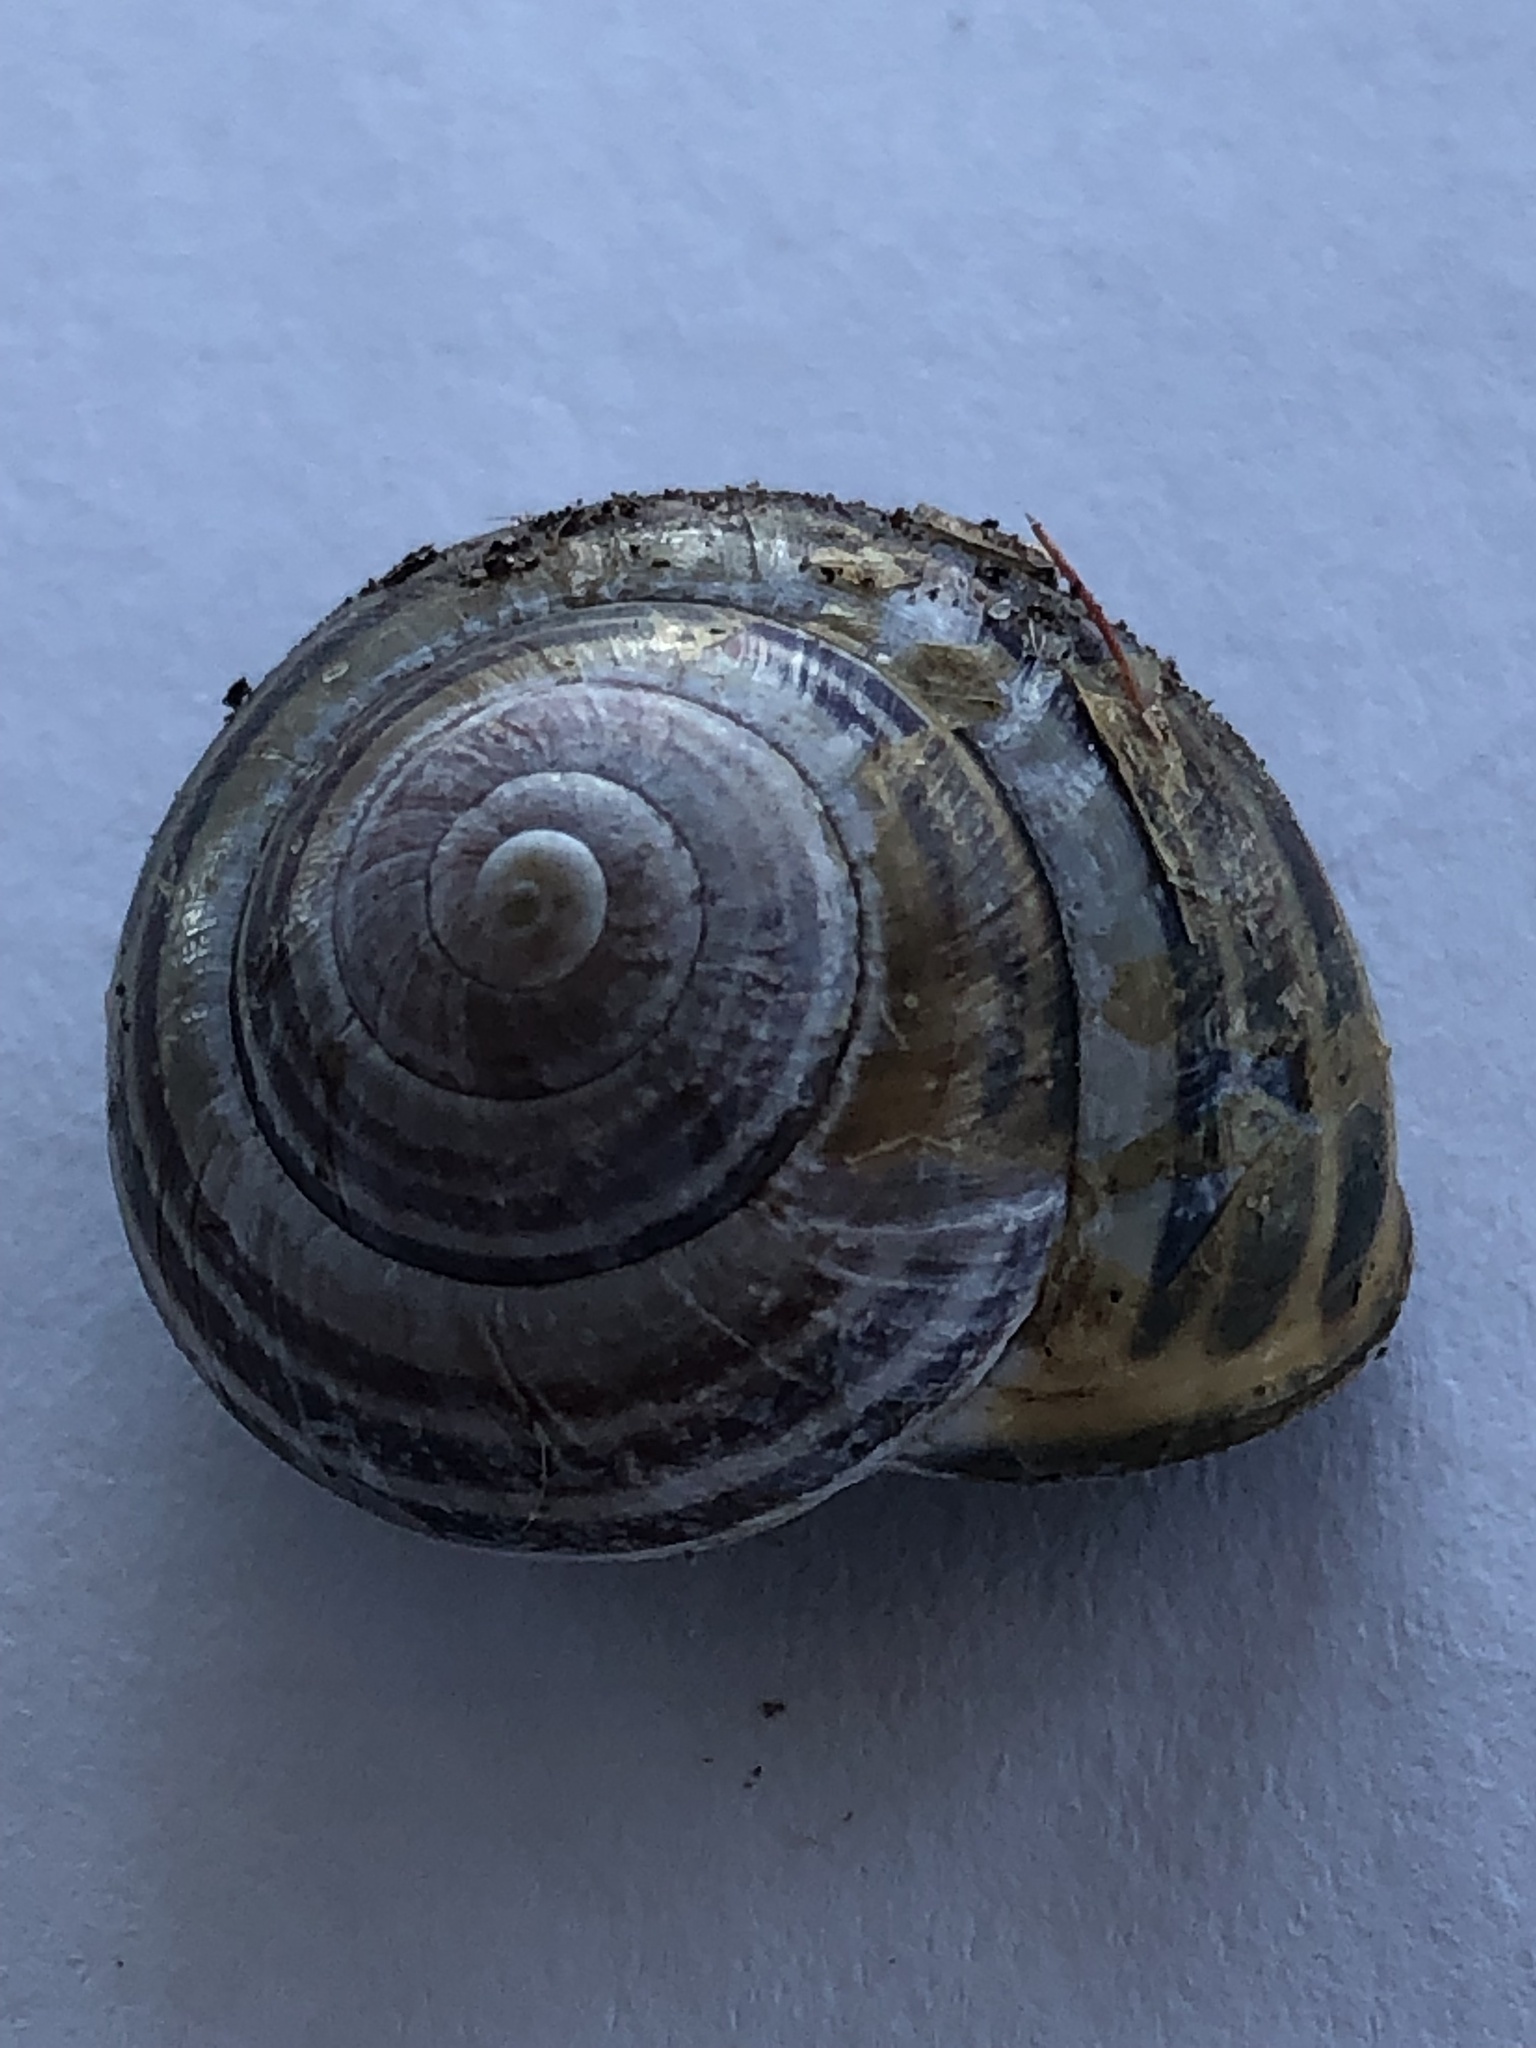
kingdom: Animalia
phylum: Mollusca
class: Gastropoda
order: Stylommatophora
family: Helicidae
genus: Cepaea
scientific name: Cepaea nemoralis
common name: Grovesnail
